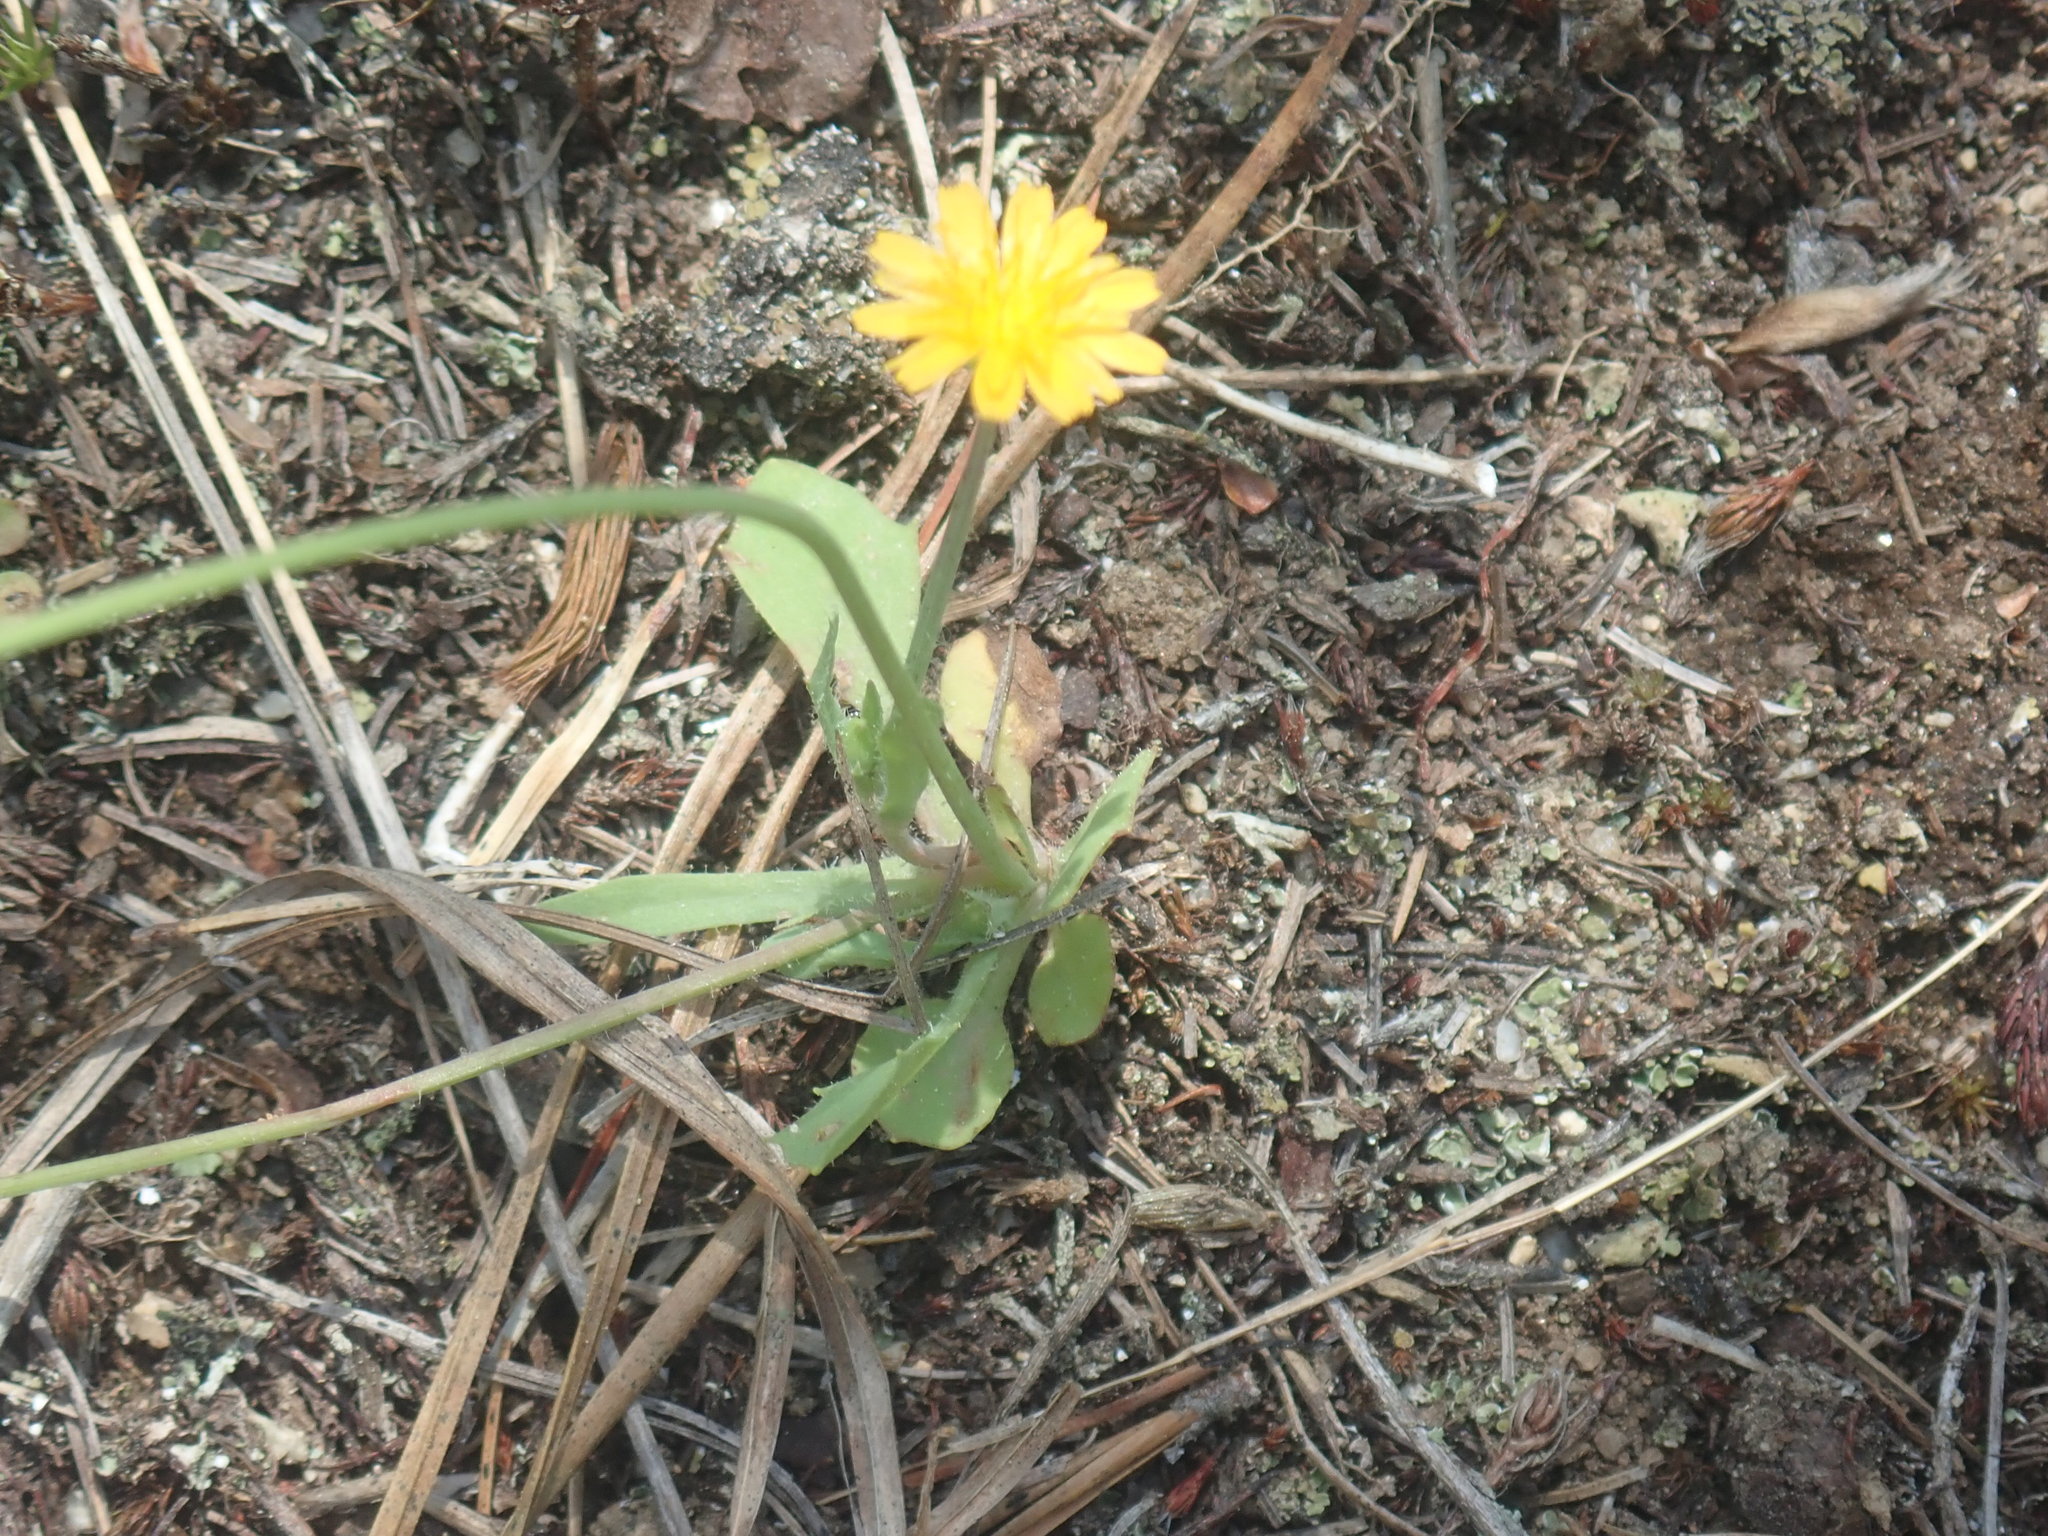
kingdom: Plantae
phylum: Tracheophyta
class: Magnoliopsida
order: Asterales
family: Asteraceae
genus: Krigia
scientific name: Krigia virginica
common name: Virginia dwarf-dandelion
